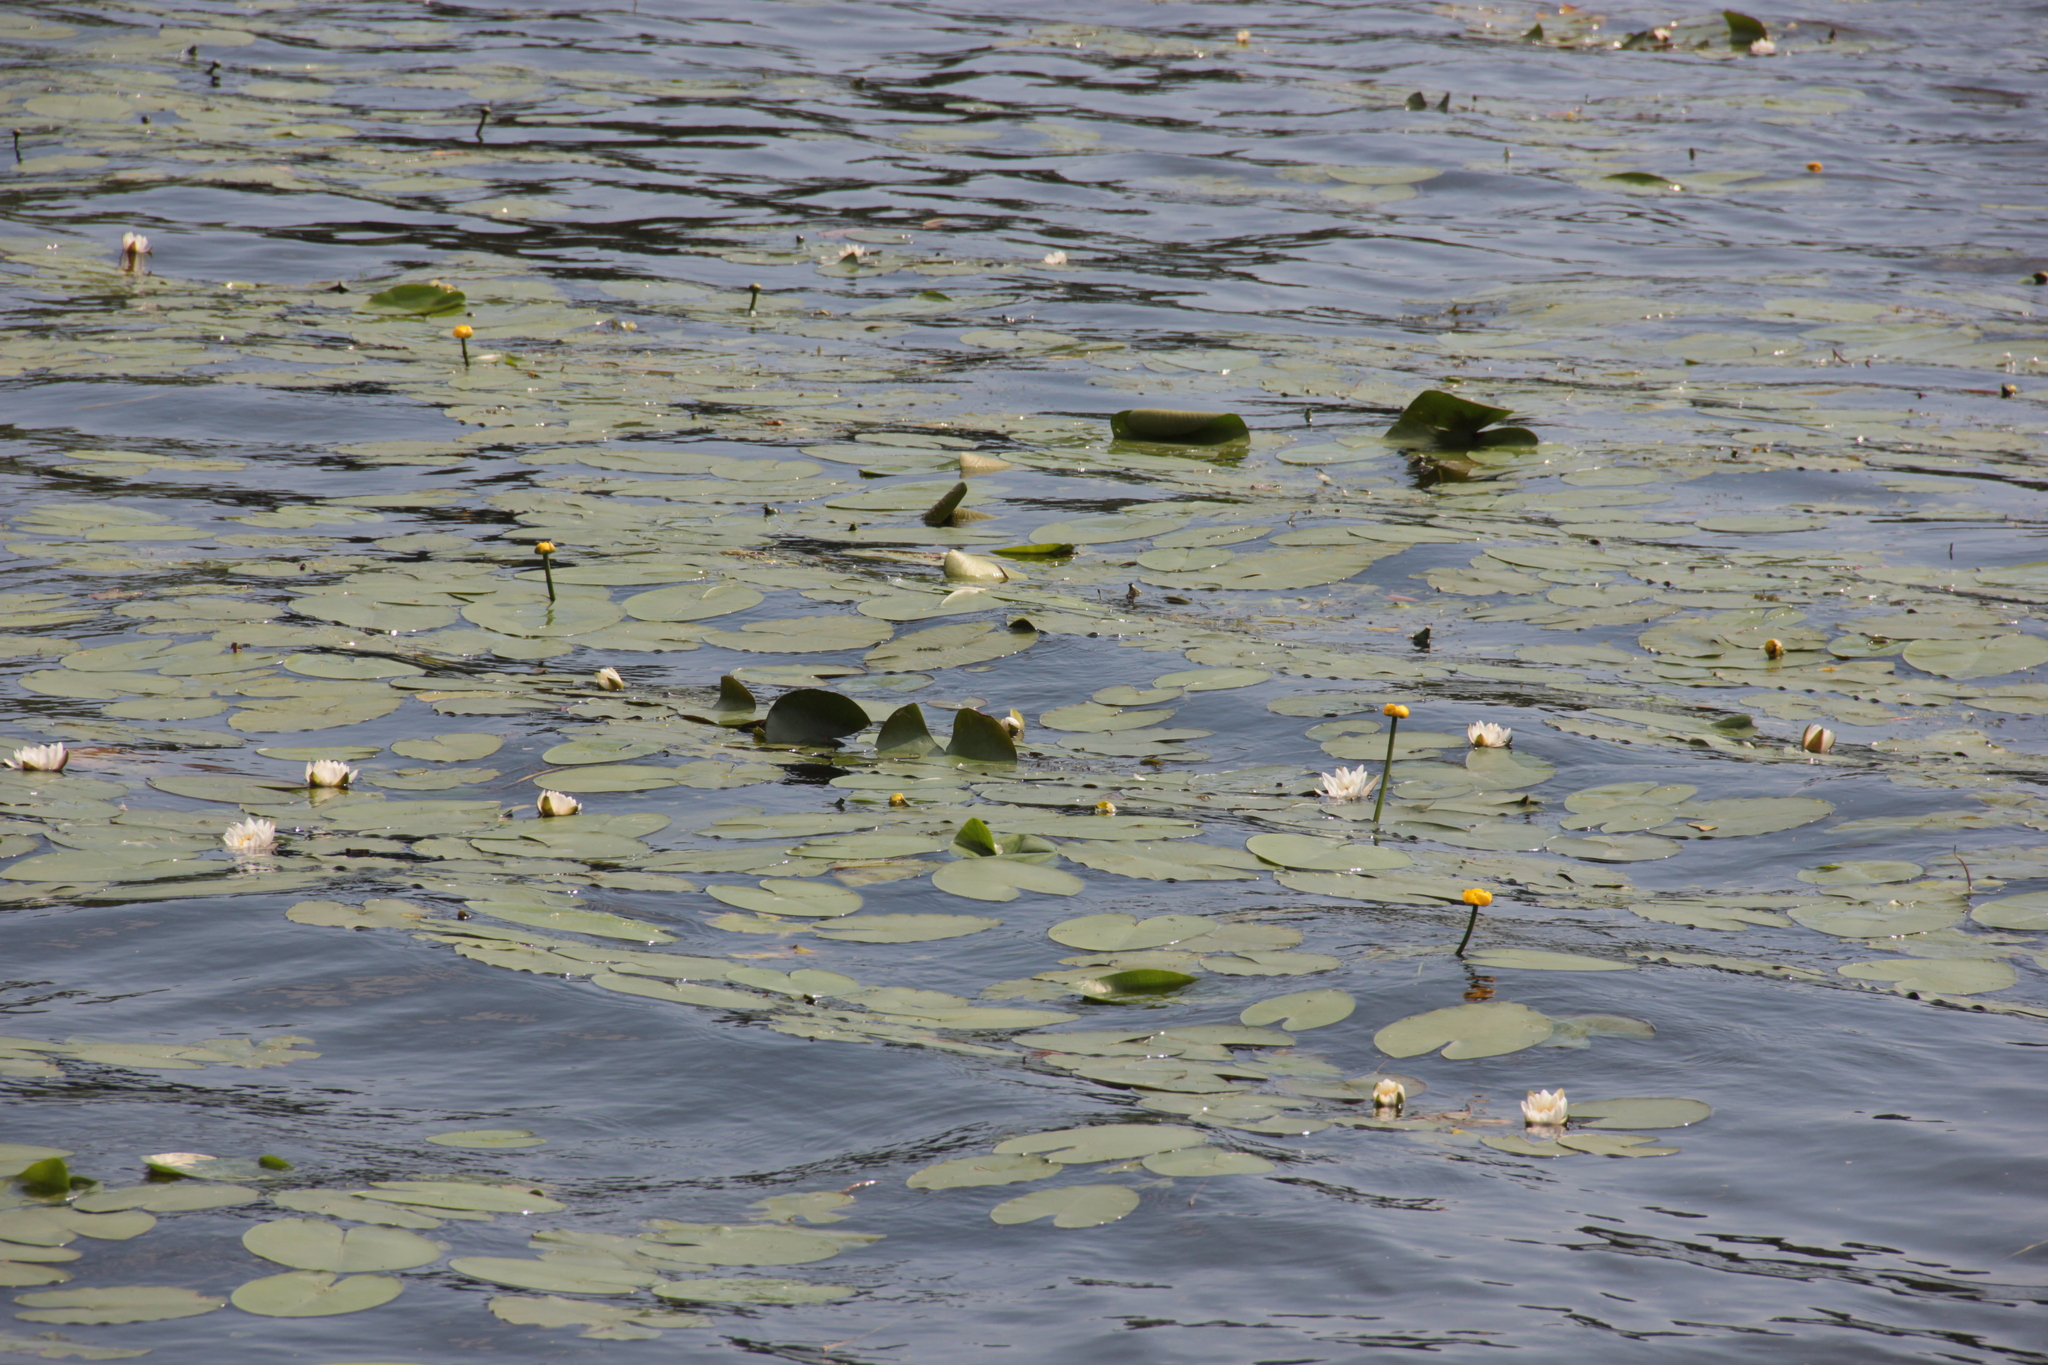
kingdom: Plantae
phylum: Tracheophyta
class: Magnoliopsida
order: Nymphaeales
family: Nymphaeaceae
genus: Nymphaea
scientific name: Nymphaea candida
